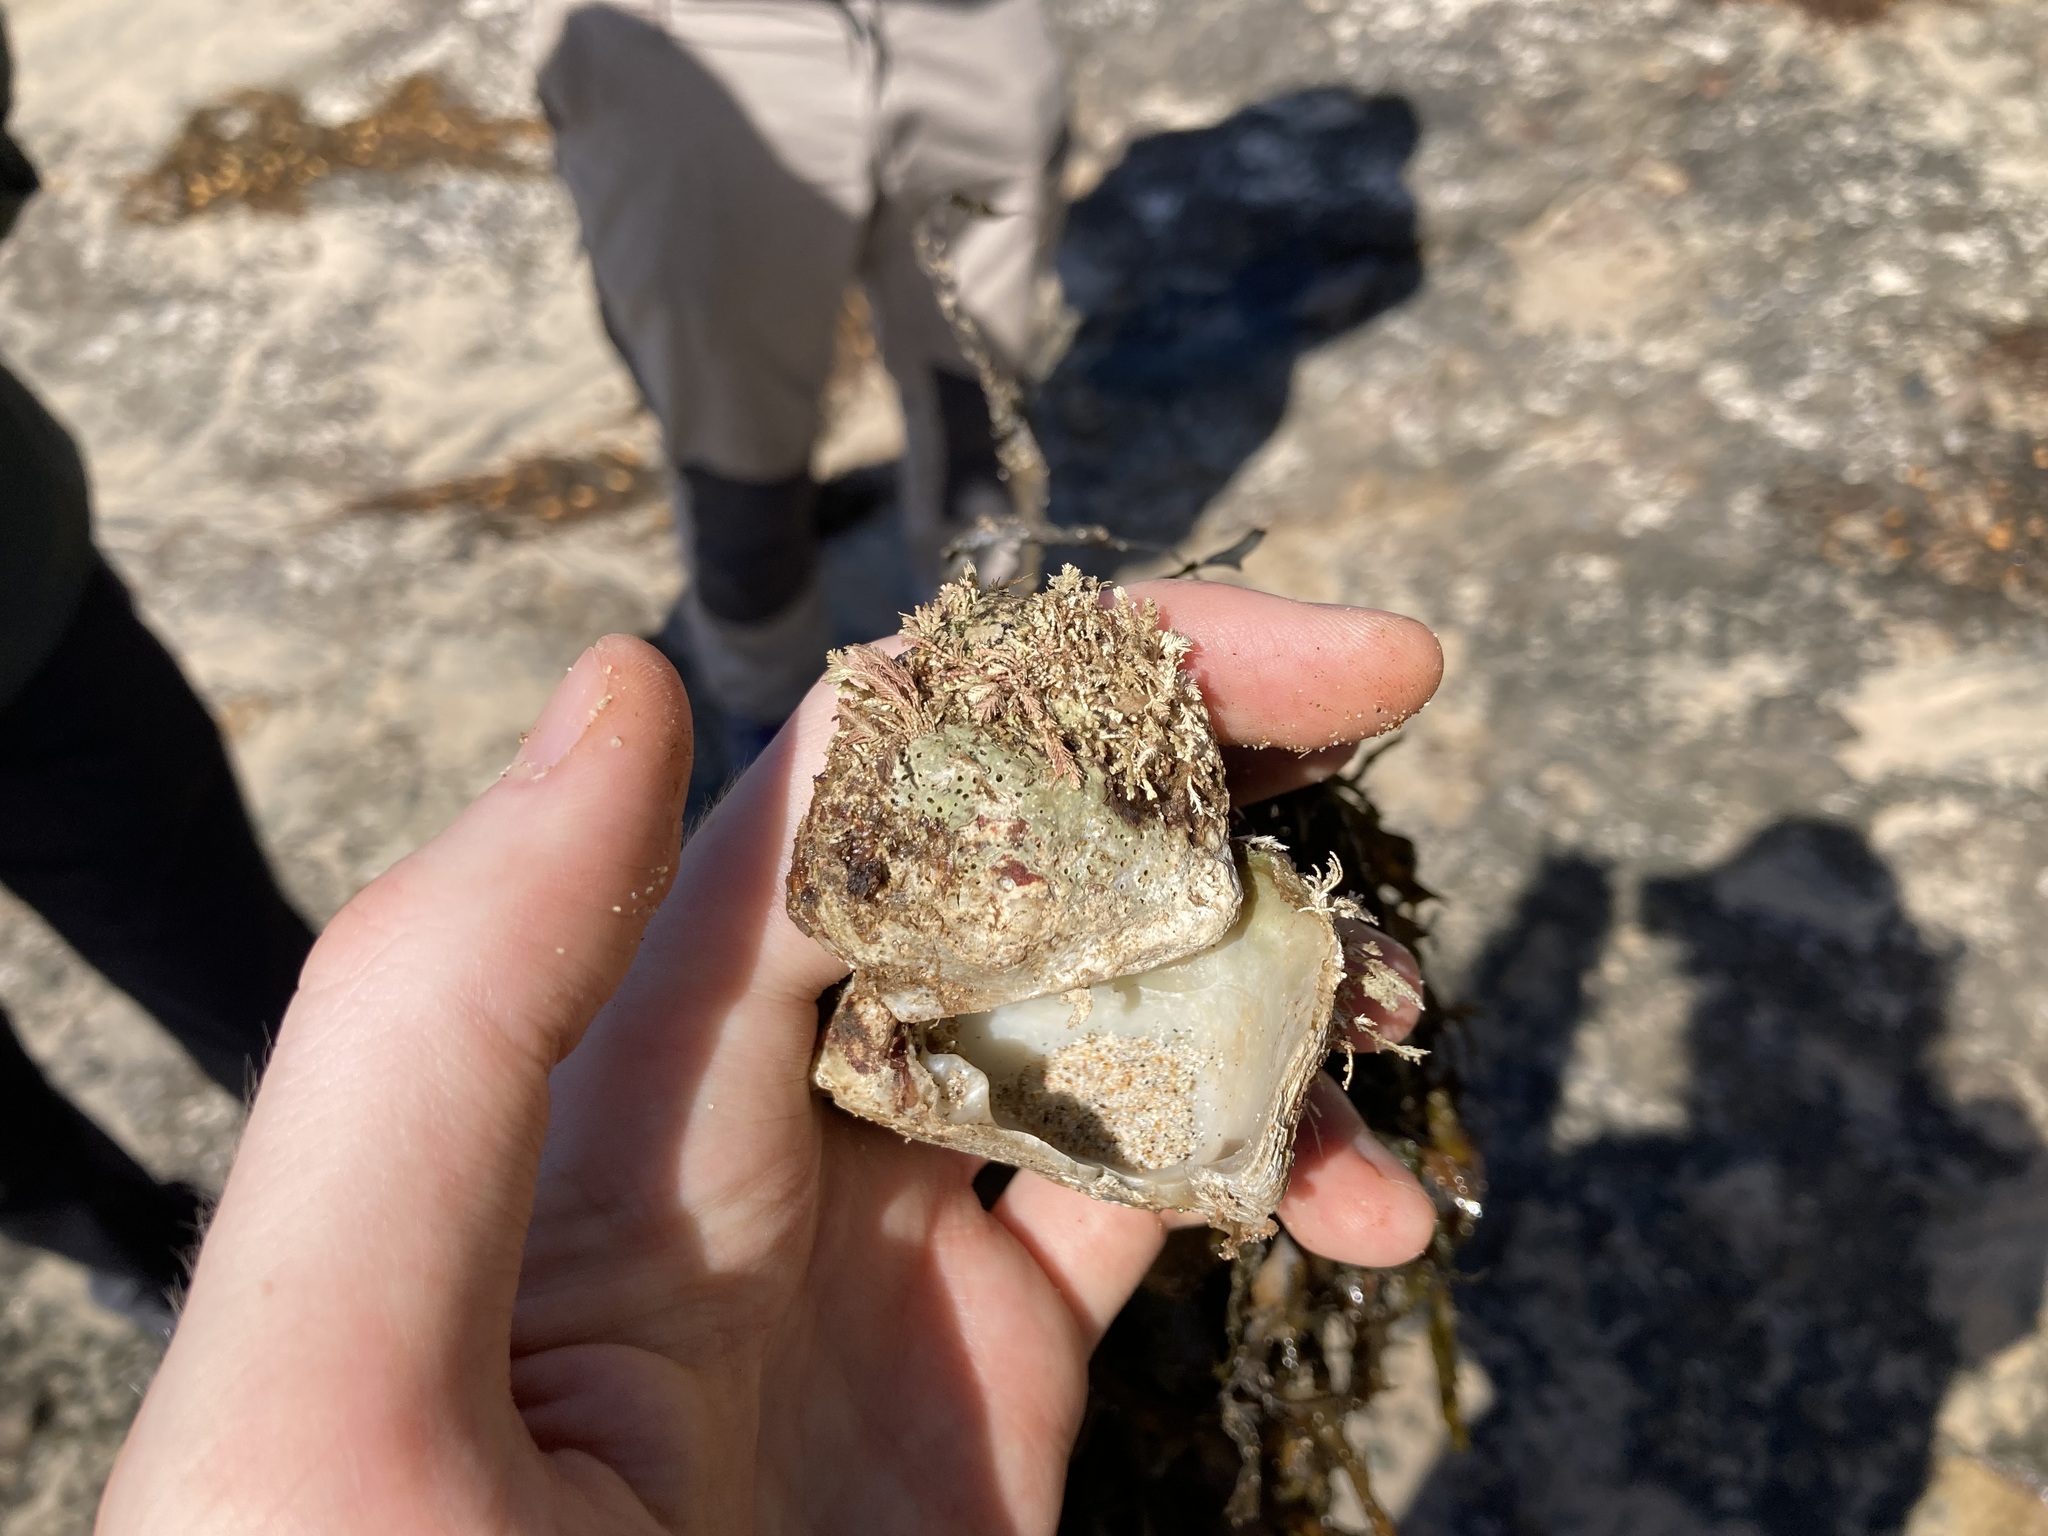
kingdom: Animalia
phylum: Mollusca
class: Bivalvia
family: Cleidothaeridae
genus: Cleidothaerus
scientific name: Cleidothaerus albidus
